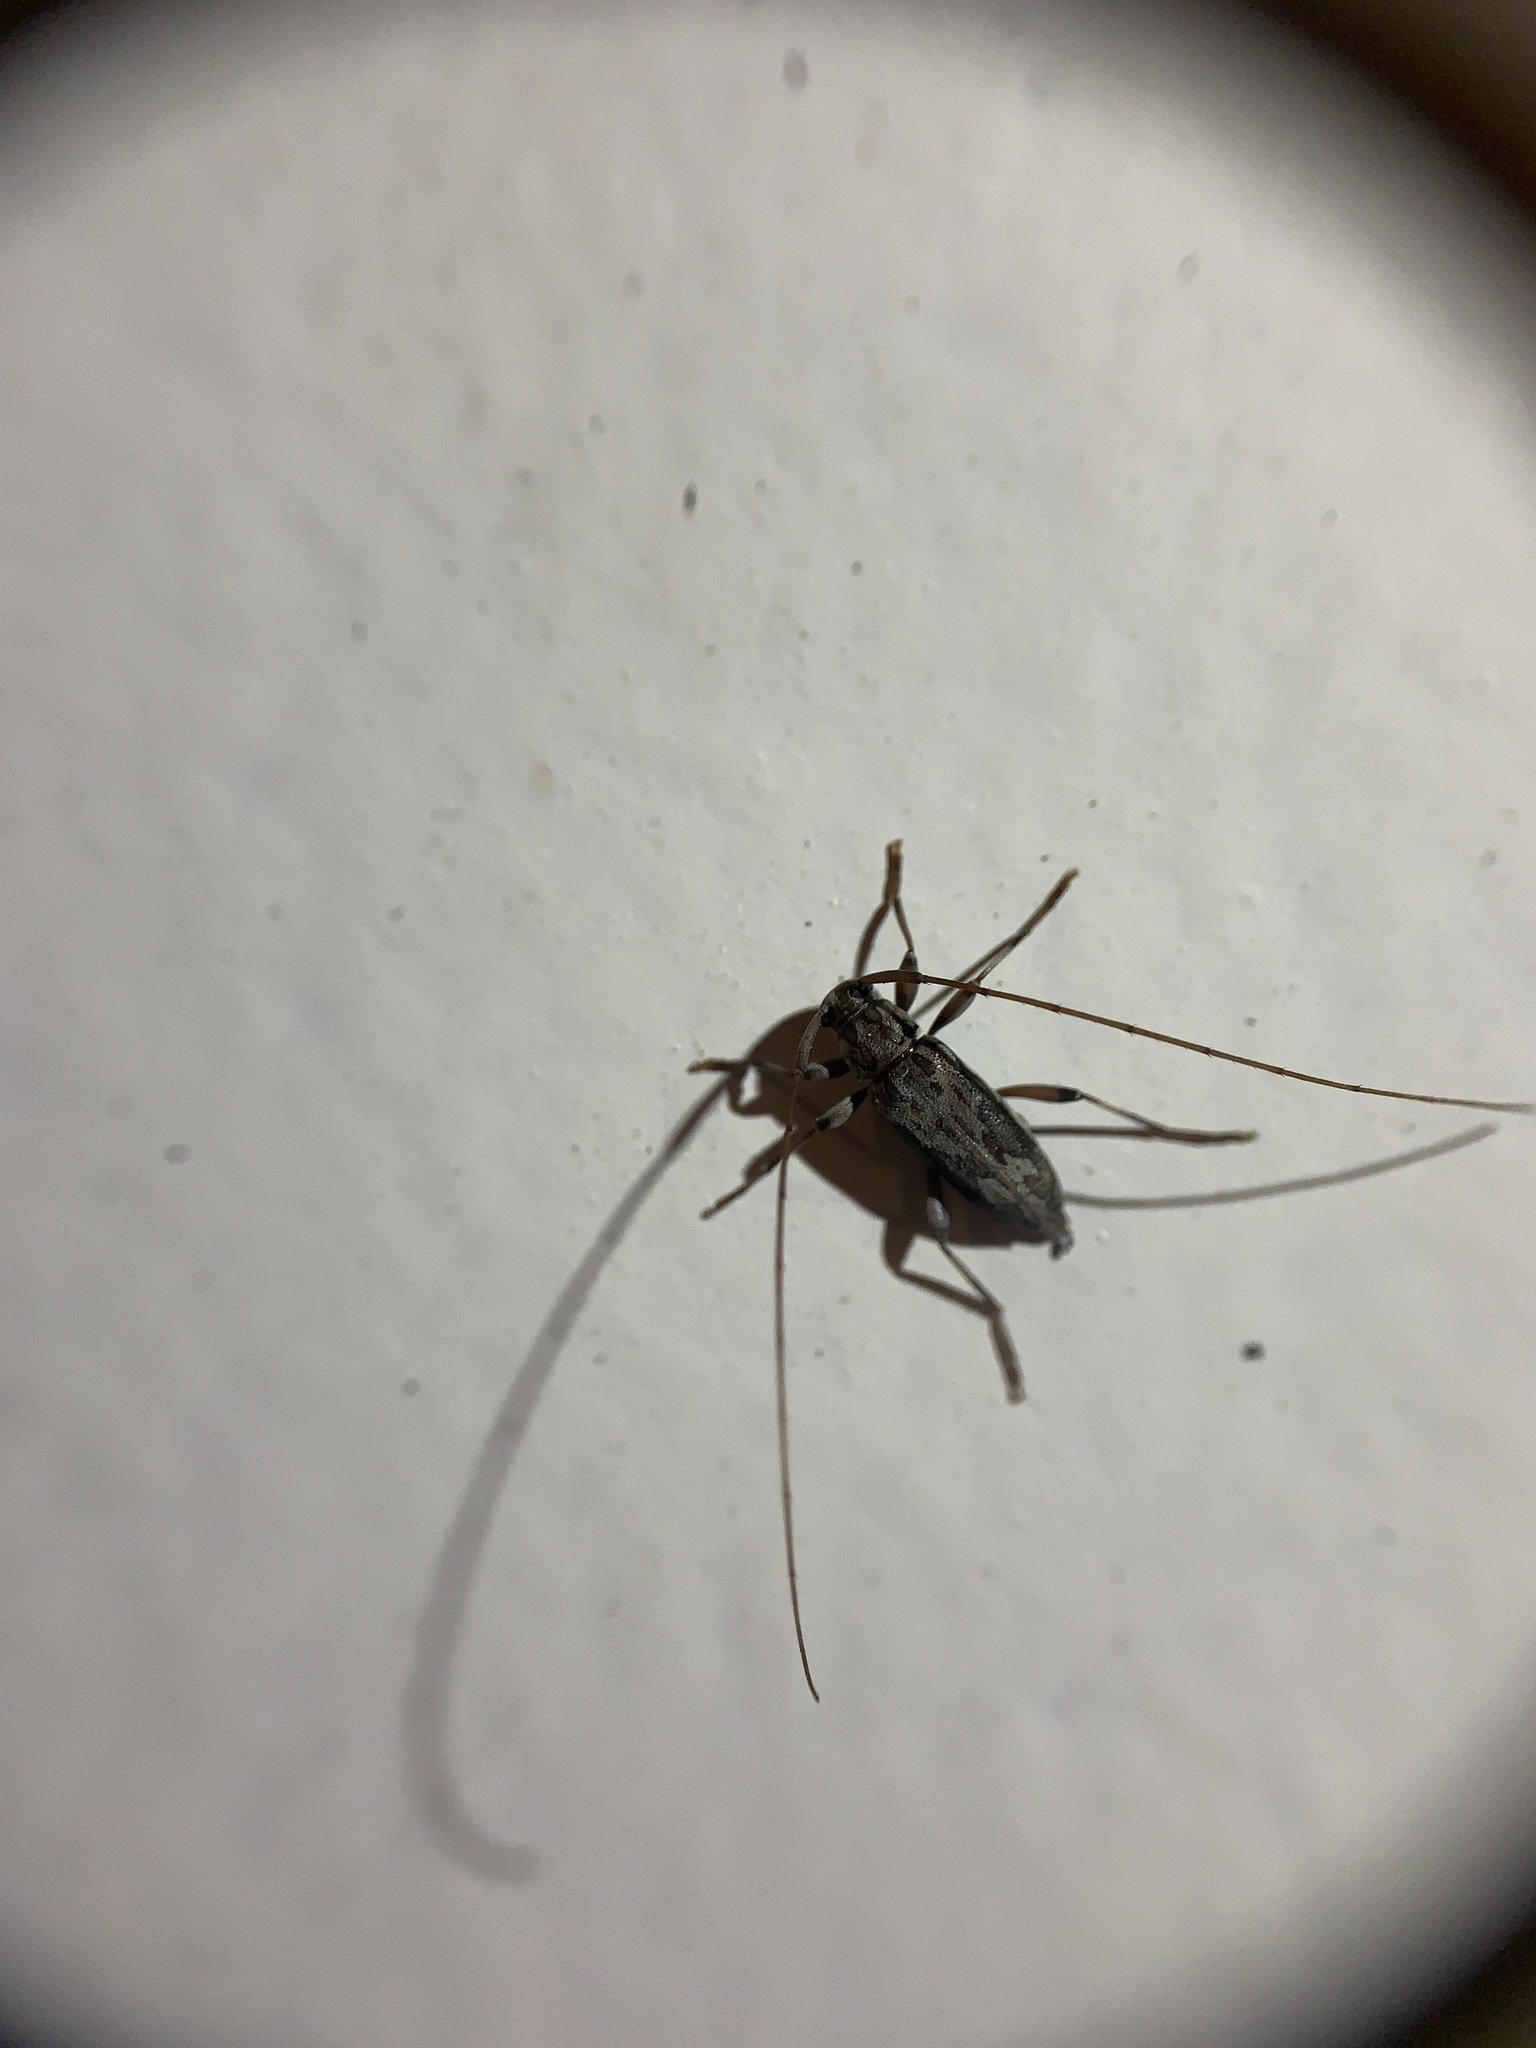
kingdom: Animalia
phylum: Arthropoda
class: Insecta
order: Coleoptera
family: Cerambycidae
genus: Lepturges
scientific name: Lepturges confluens
